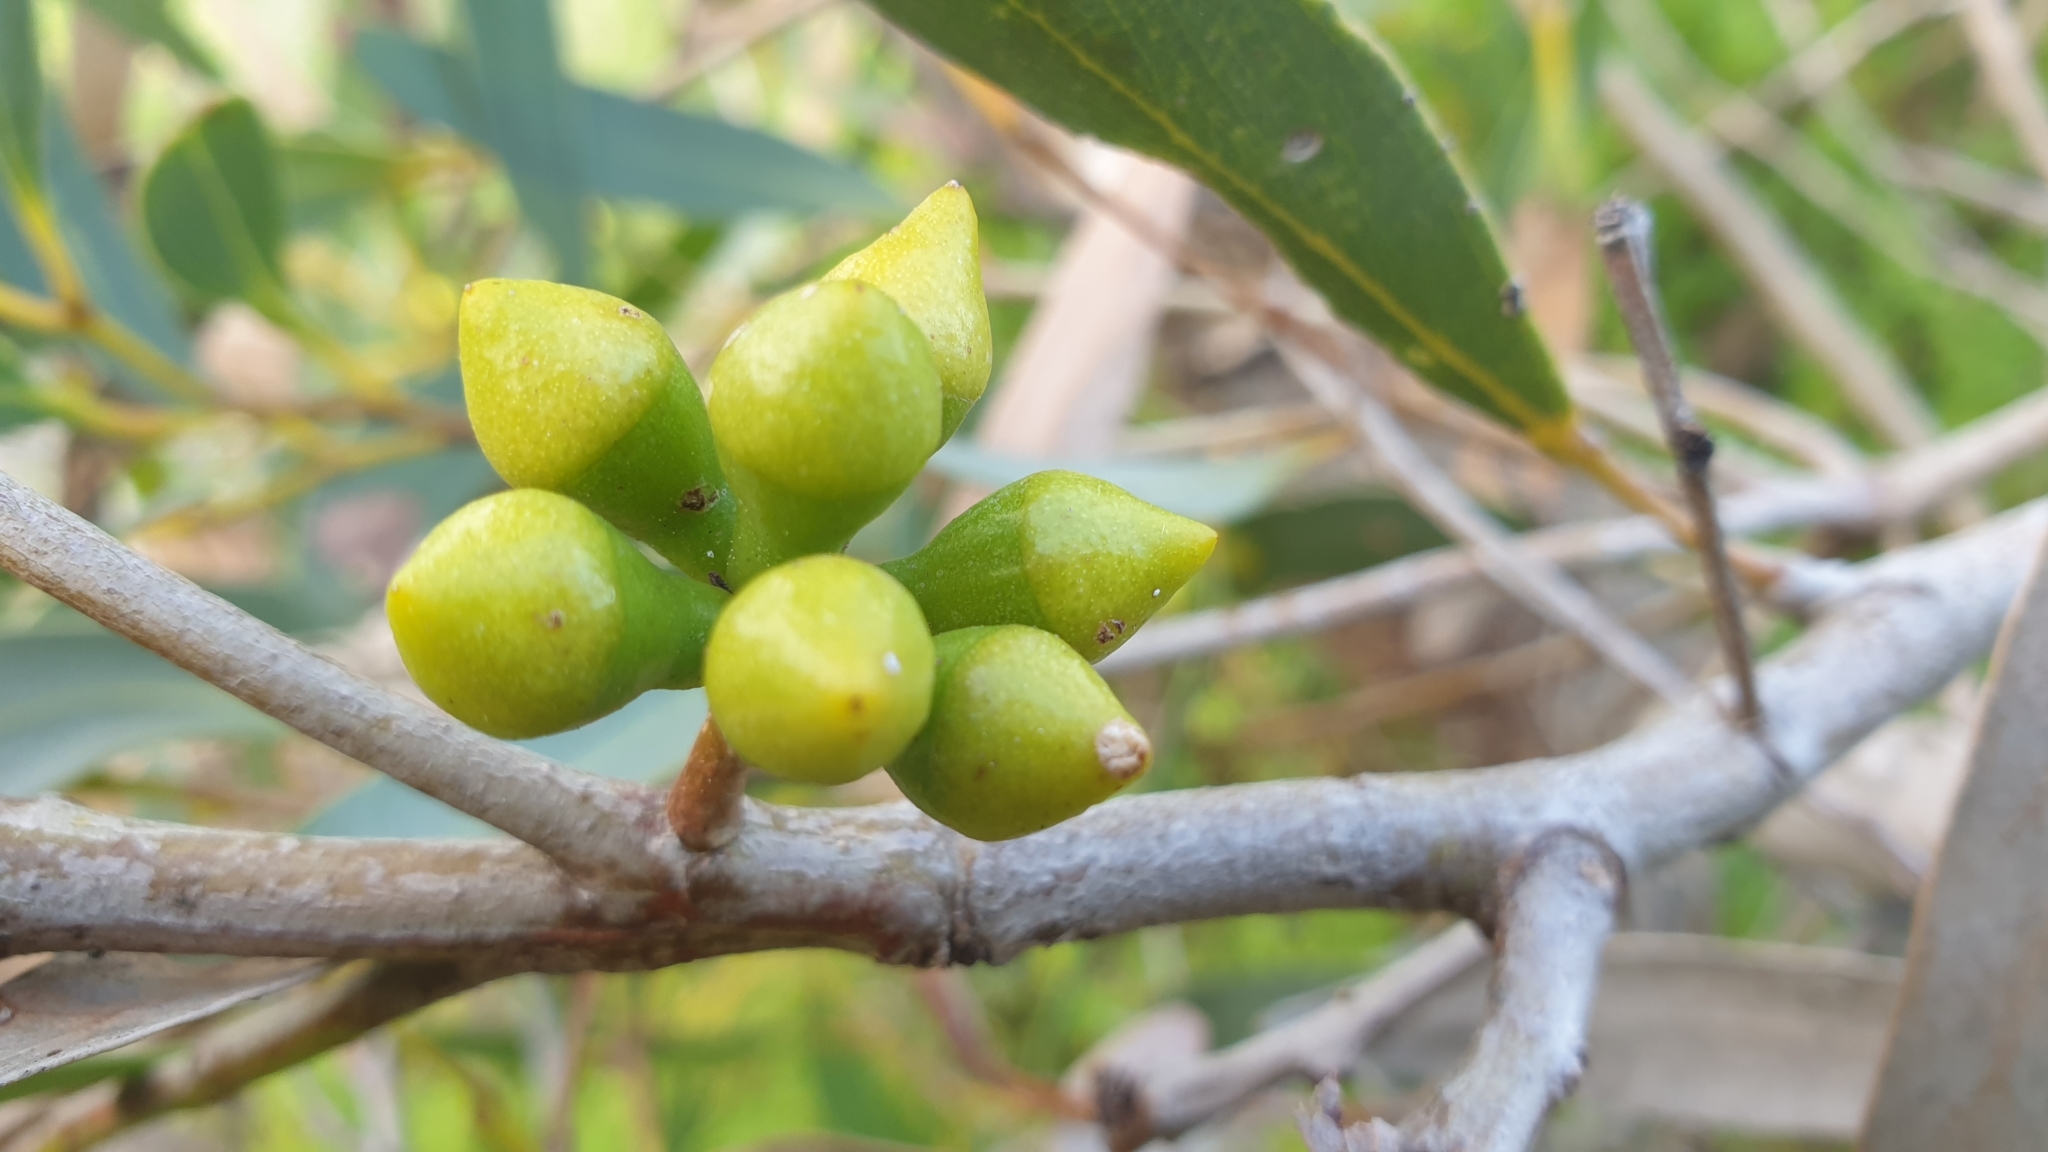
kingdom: Plantae
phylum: Tracheophyta
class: Magnoliopsida
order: Myrtales
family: Myrtaceae
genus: Eucalyptus
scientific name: Eucalyptus diversifolia
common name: Coastal white mallee
